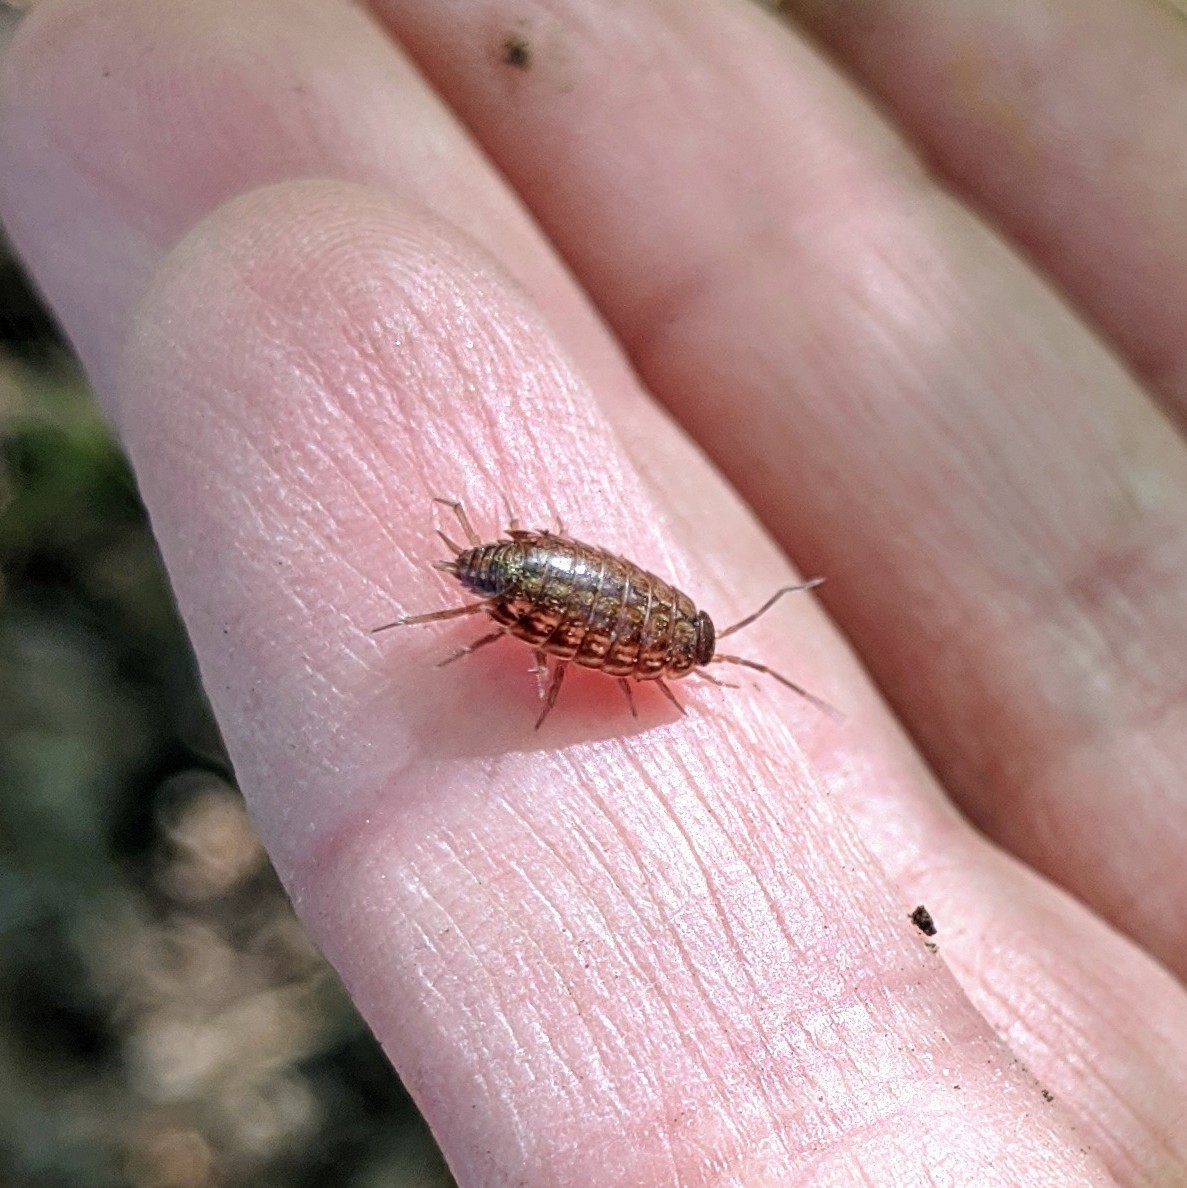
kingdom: Animalia
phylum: Arthropoda
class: Malacostraca
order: Isopoda
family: Philosciidae
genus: Philoscia
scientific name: Philoscia muscorum
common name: Common striped woodlouse
